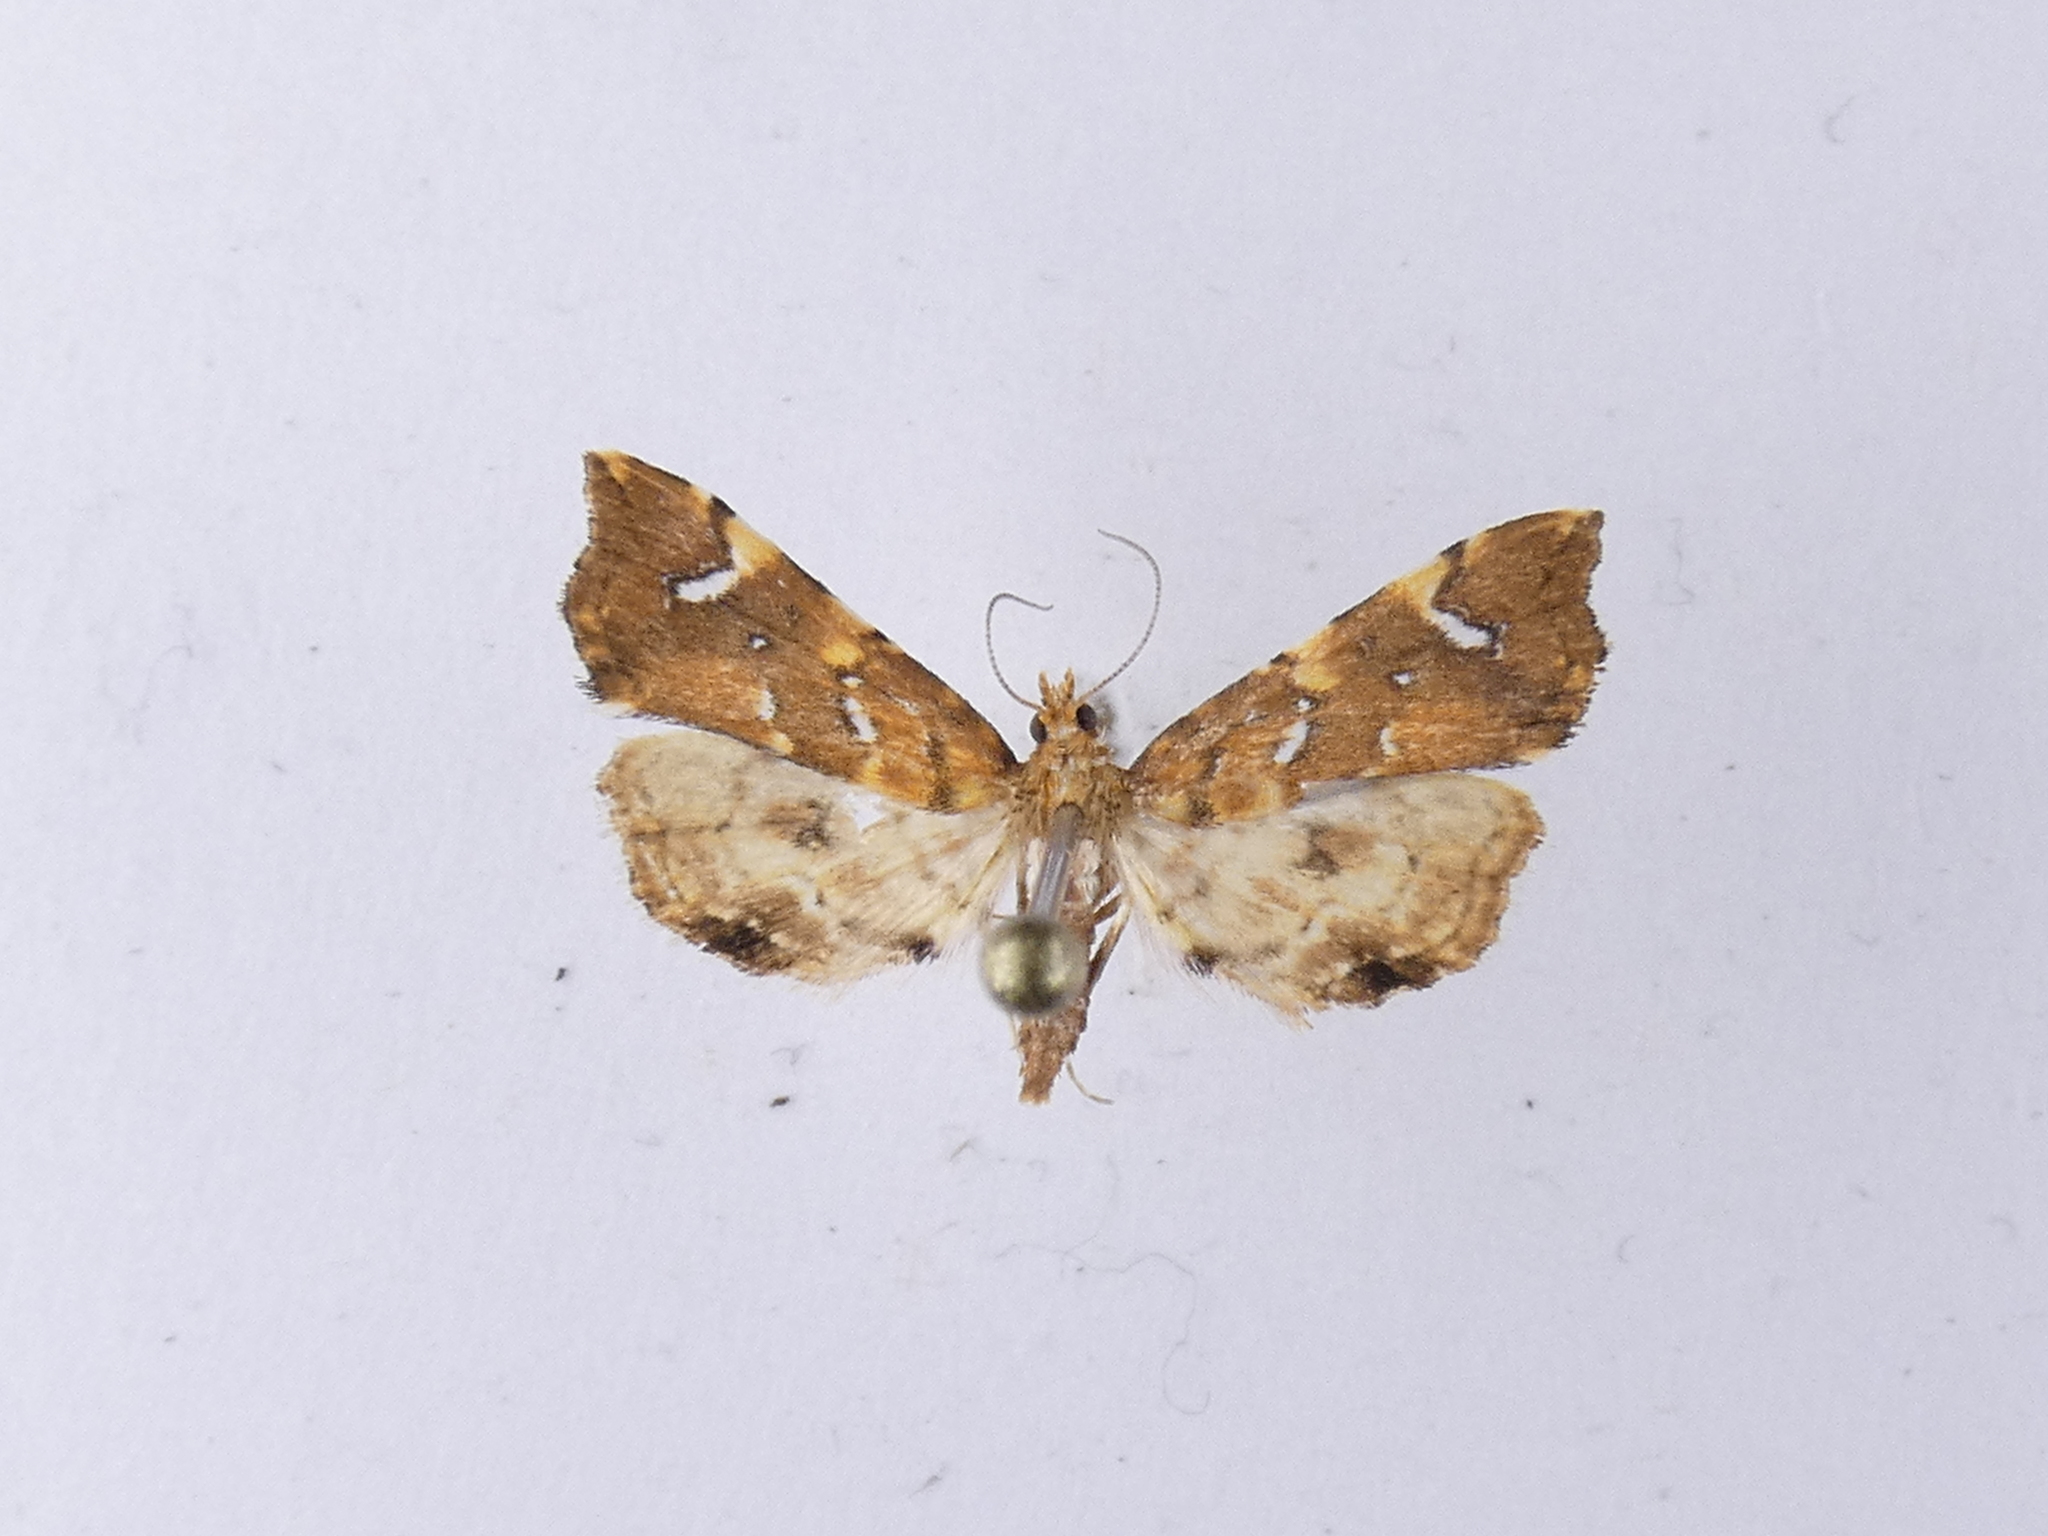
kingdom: Animalia
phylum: Arthropoda
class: Insecta
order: Lepidoptera
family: Pyralidae
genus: Musotima
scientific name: Musotima nitidalis
